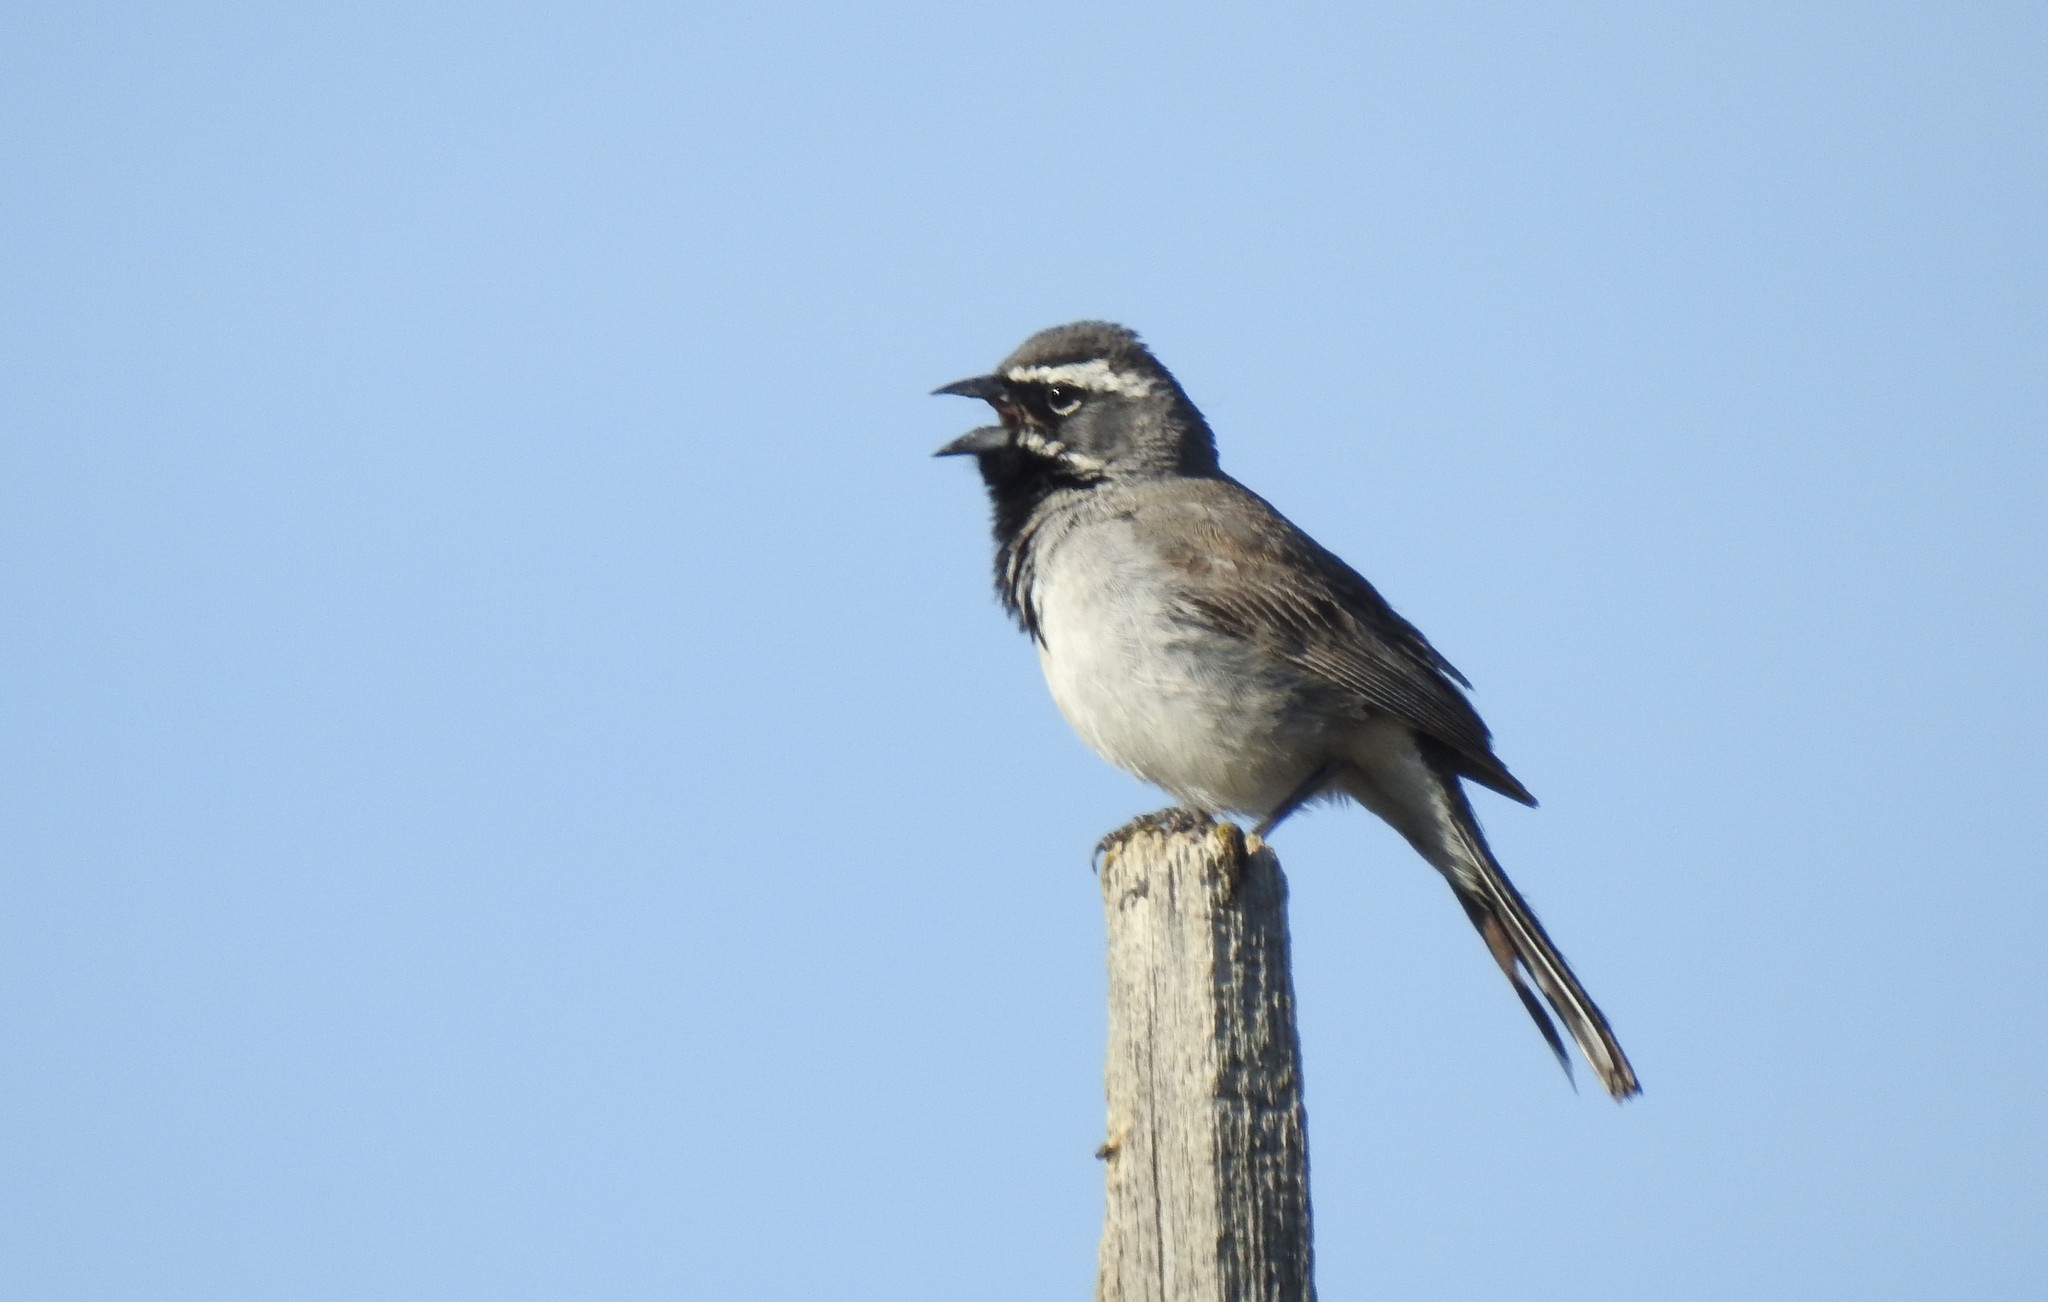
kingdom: Animalia
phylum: Chordata
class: Aves
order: Passeriformes
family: Passerellidae
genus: Amphispiza
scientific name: Amphispiza bilineata
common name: Black-throated sparrow
